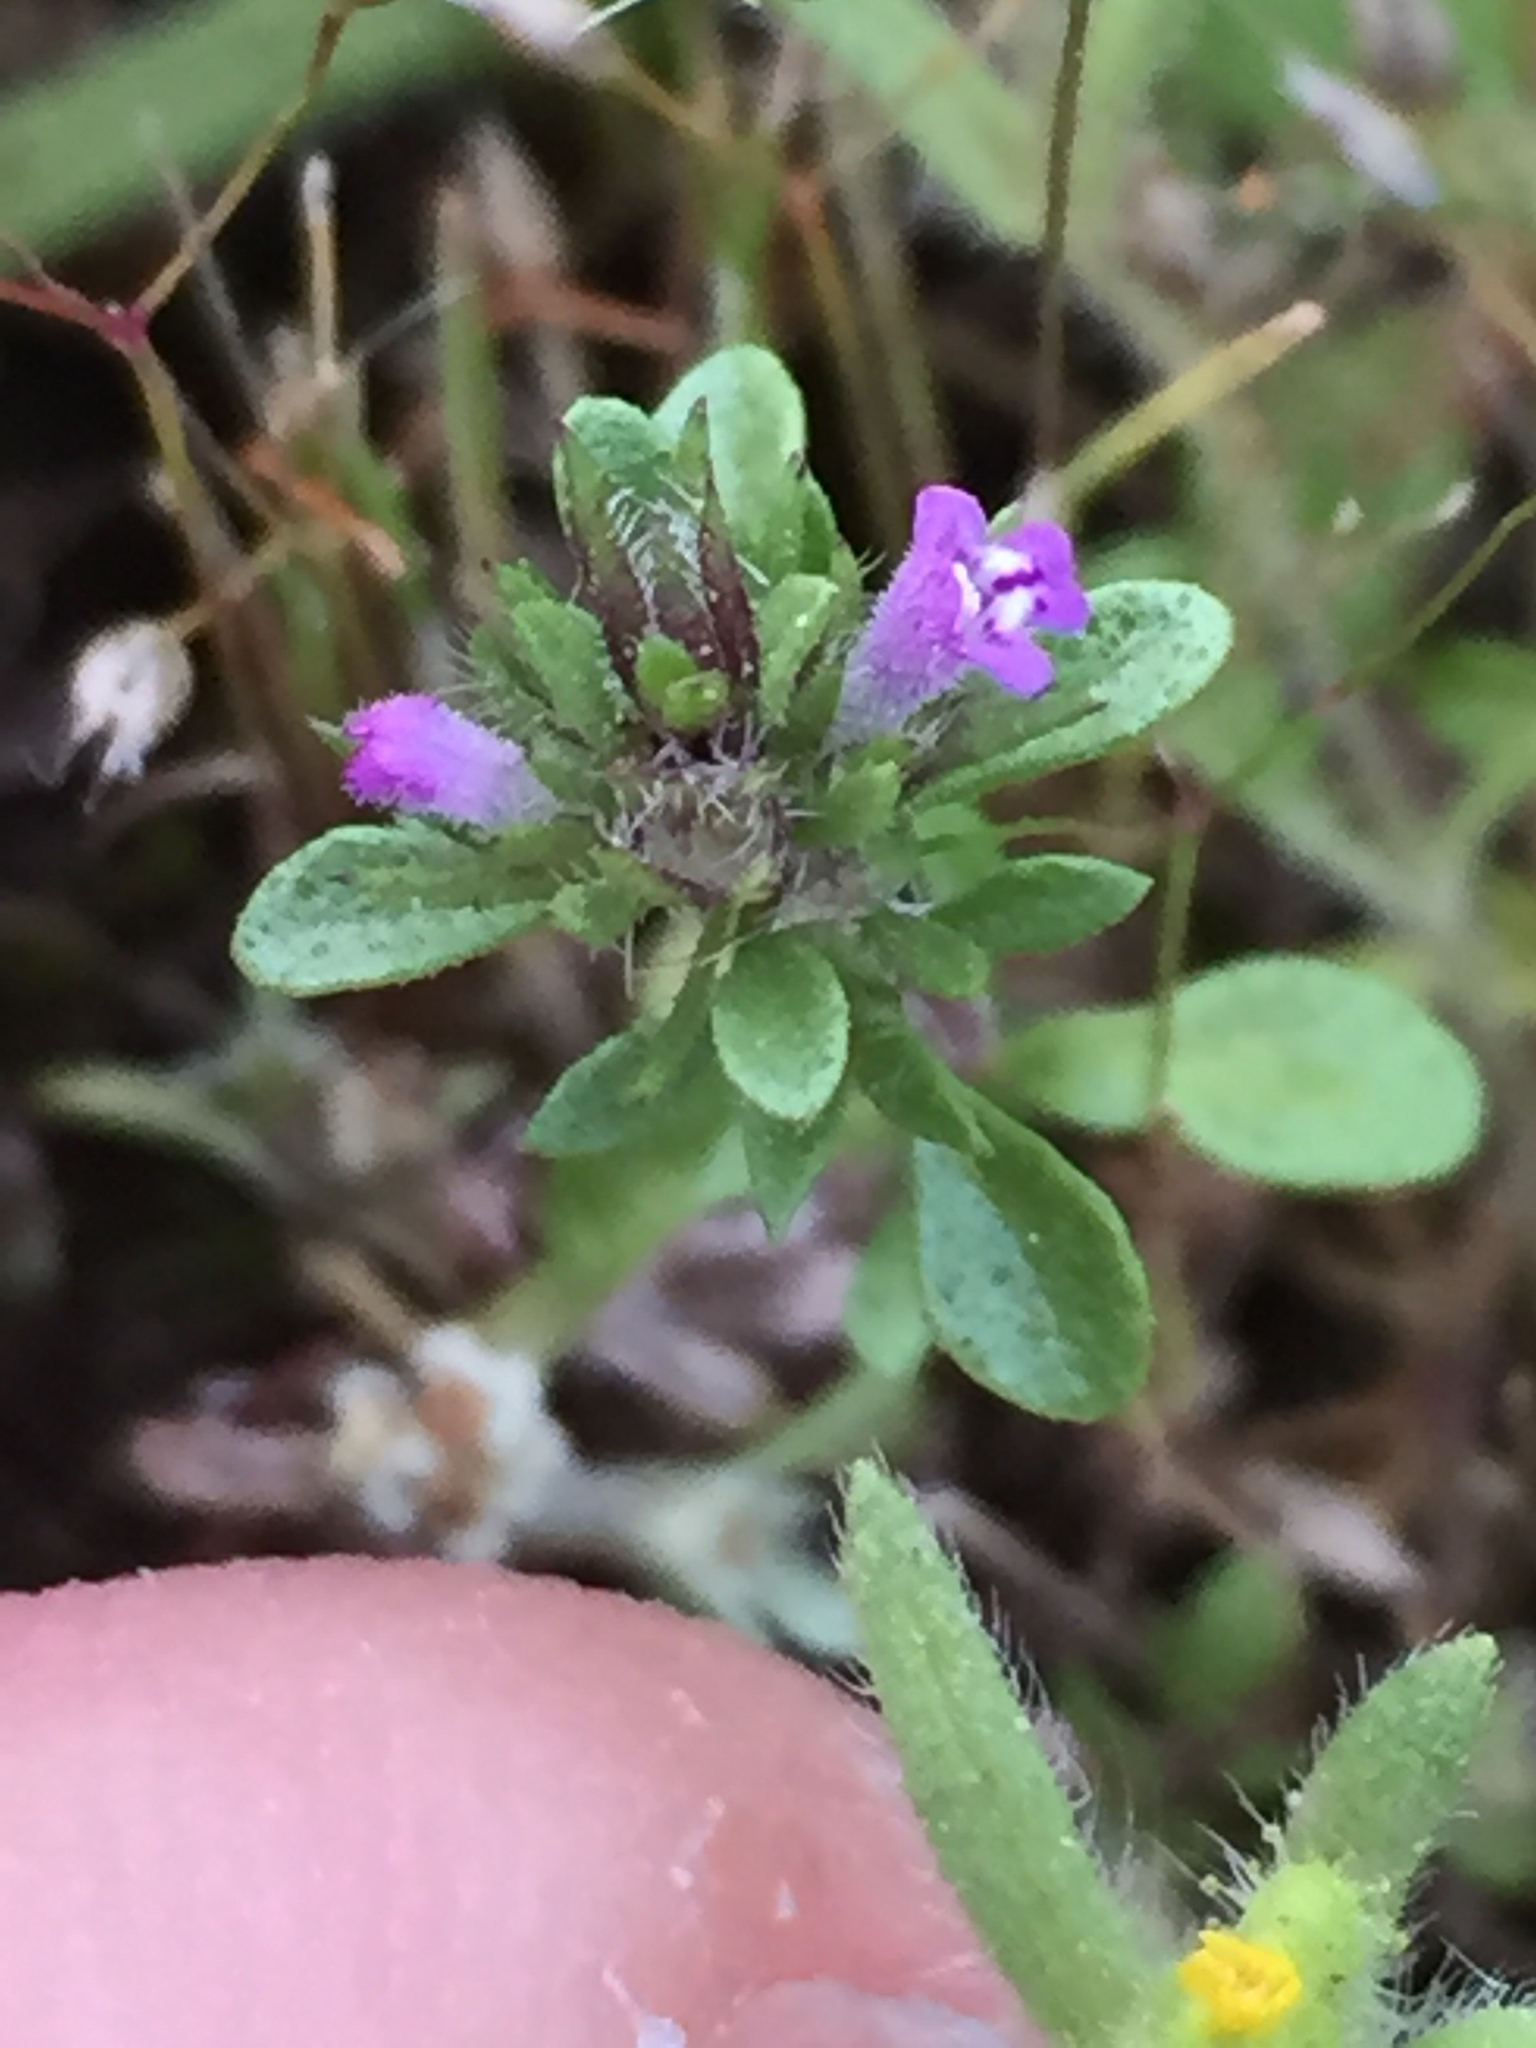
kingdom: Plantae
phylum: Tracheophyta
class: Magnoliopsida
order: Lamiales
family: Lamiaceae
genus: Pogogyne
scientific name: Pogogyne serpylloides
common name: Thymeleaf mesamint
